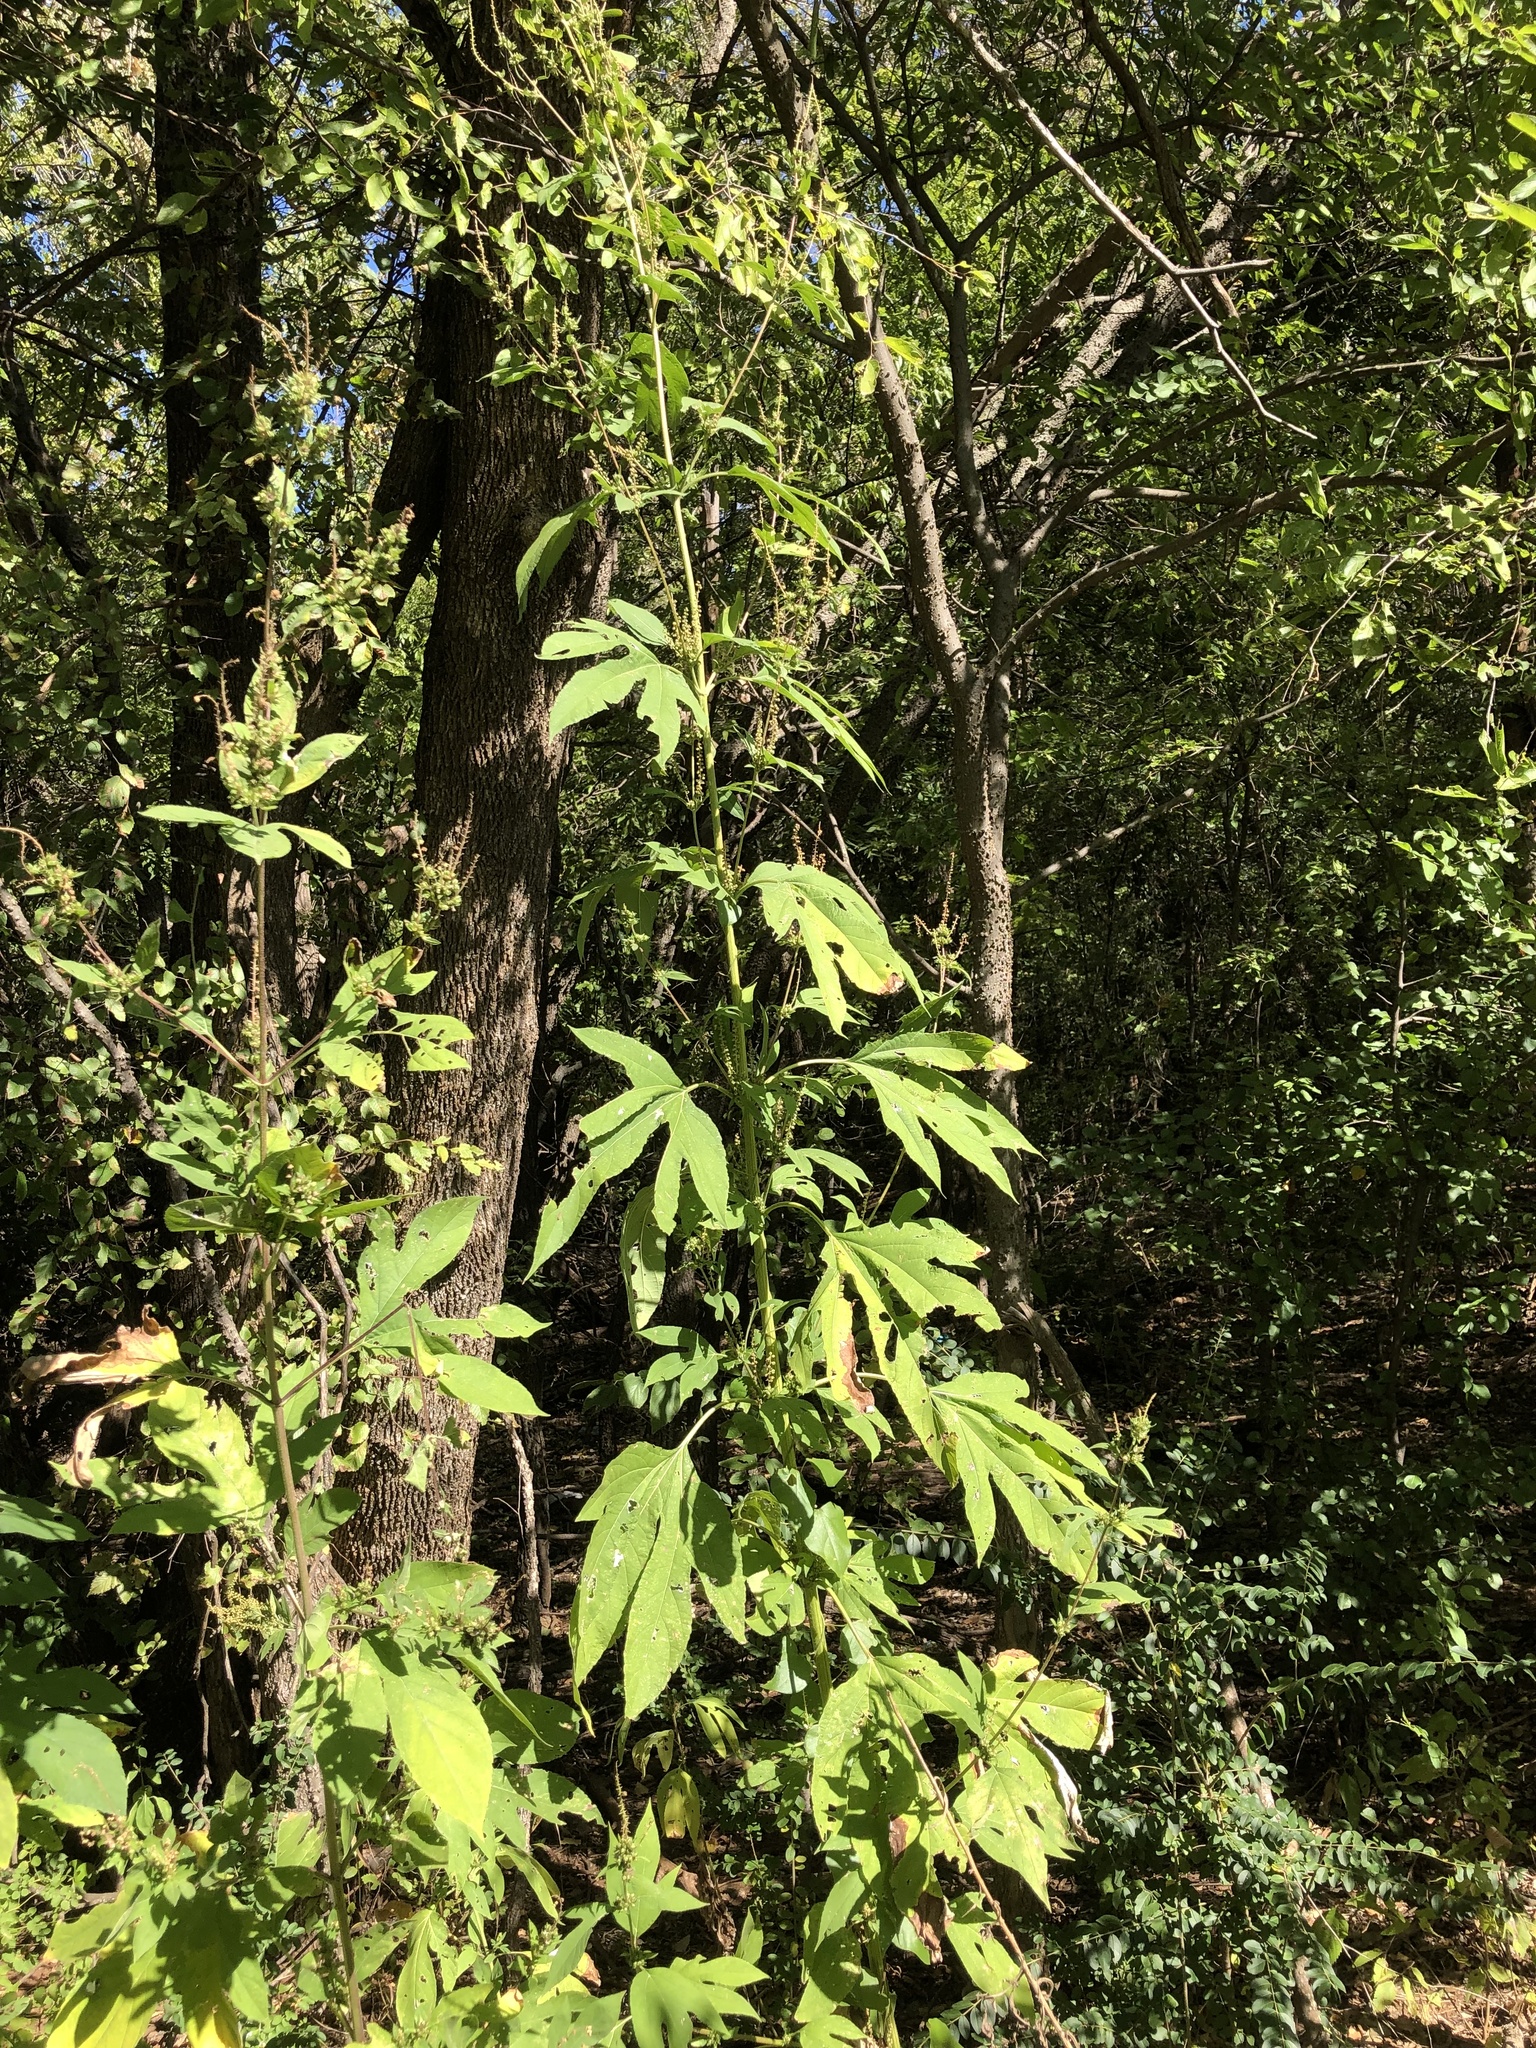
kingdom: Plantae
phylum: Tracheophyta
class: Magnoliopsida
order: Asterales
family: Asteraceae
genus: Ambrosia
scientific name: Ambrosia trifida
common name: Giant ragweed
